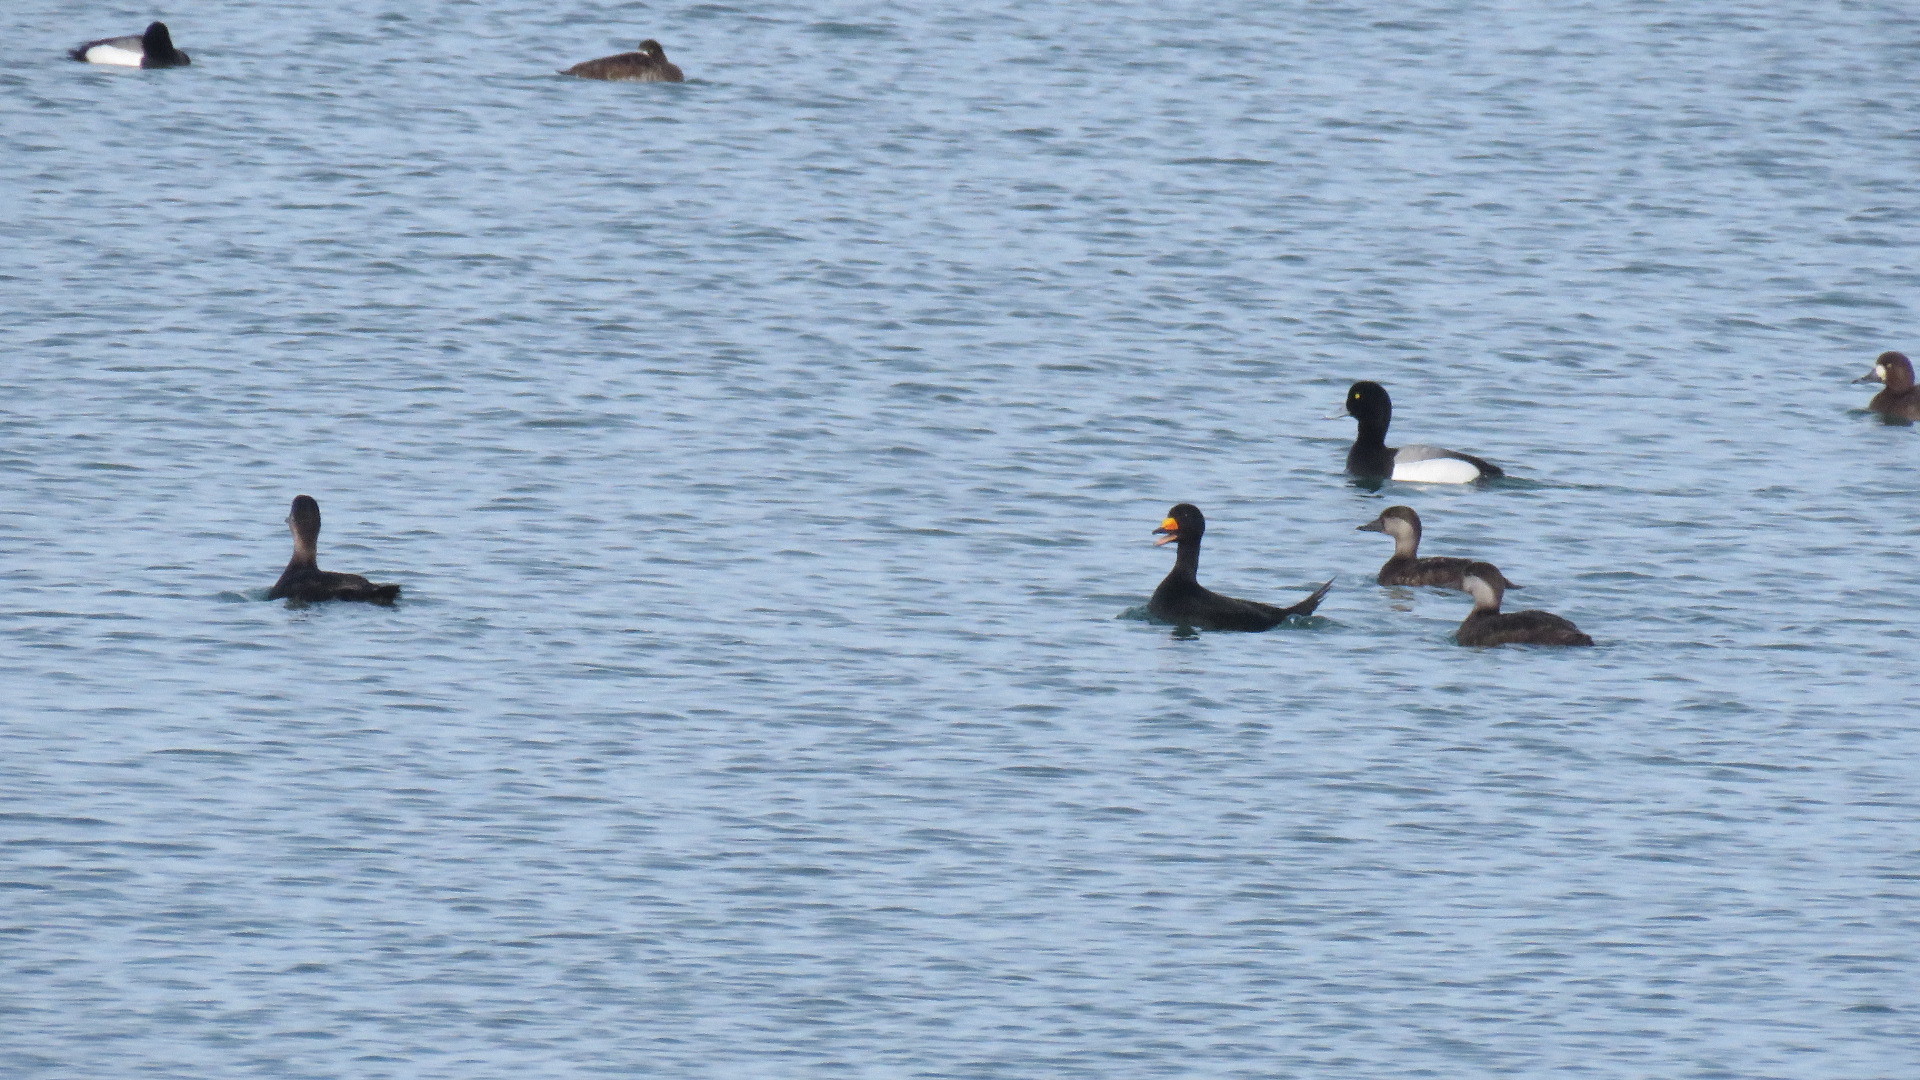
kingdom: Animalia
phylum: Chordata
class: Aves
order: Anseriformes
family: Anatidae
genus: Melanitta
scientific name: Melanitta americana
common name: Black scoter
